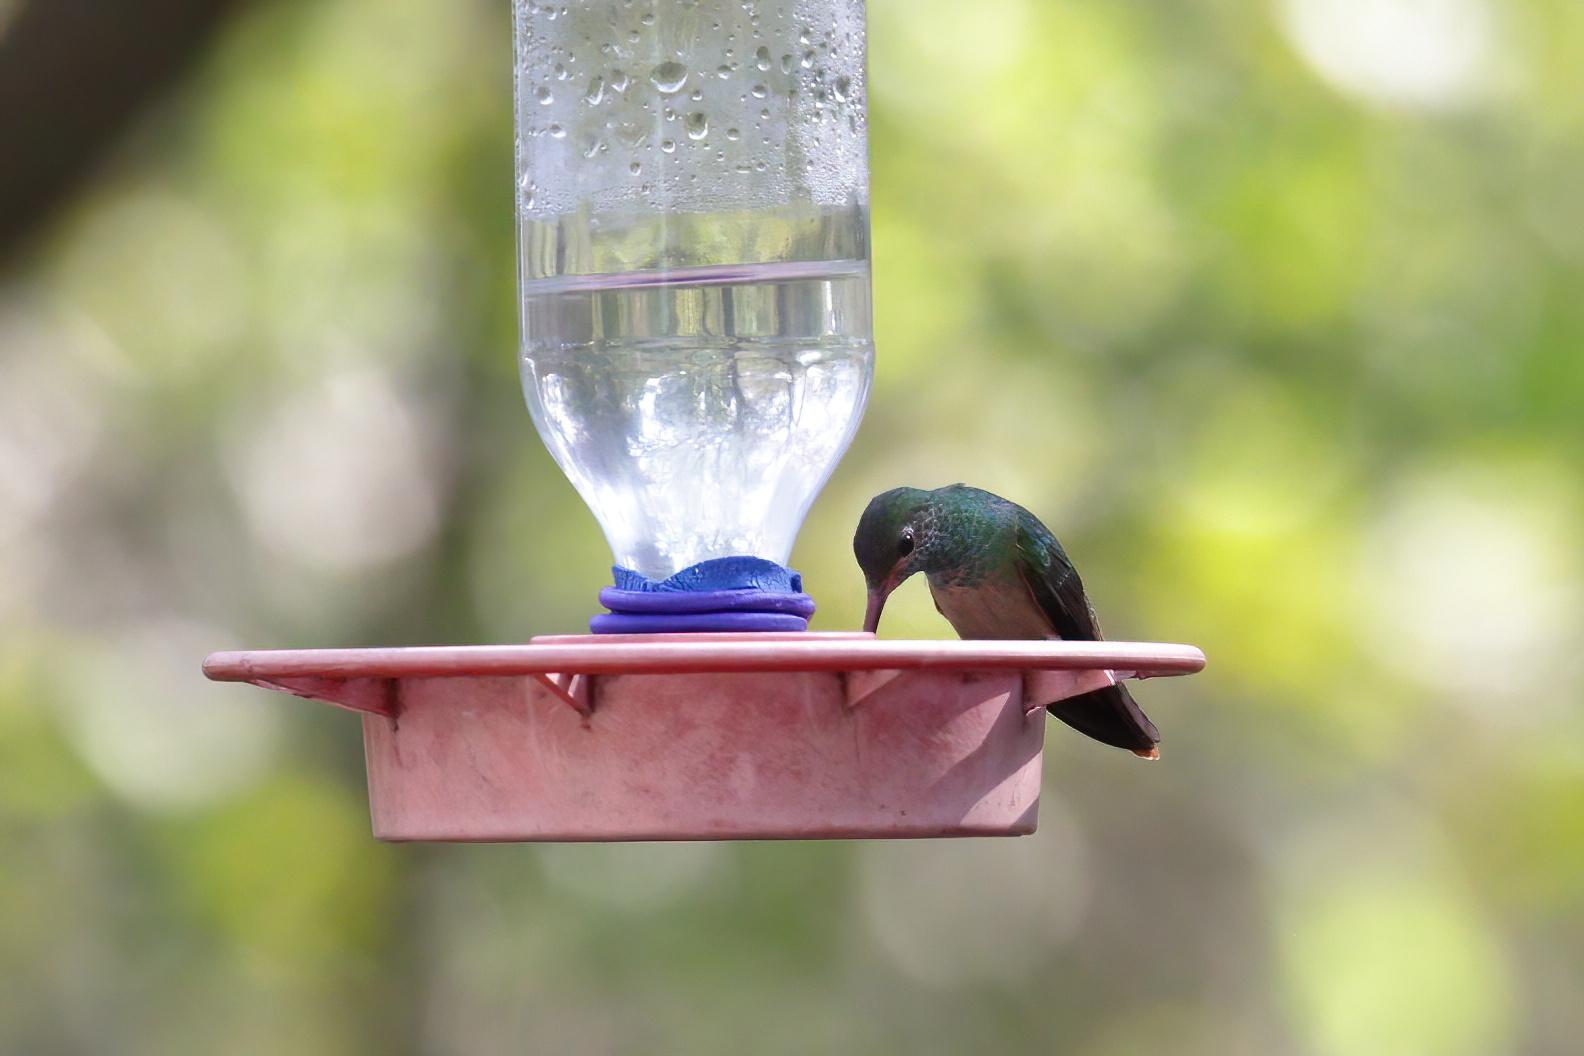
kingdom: Animalia
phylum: Chordata
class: Aves
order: Apodiformes
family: Trochilidae
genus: Amazilia
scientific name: Amazilia yucatanensis
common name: Buff-bellied hummingbird
